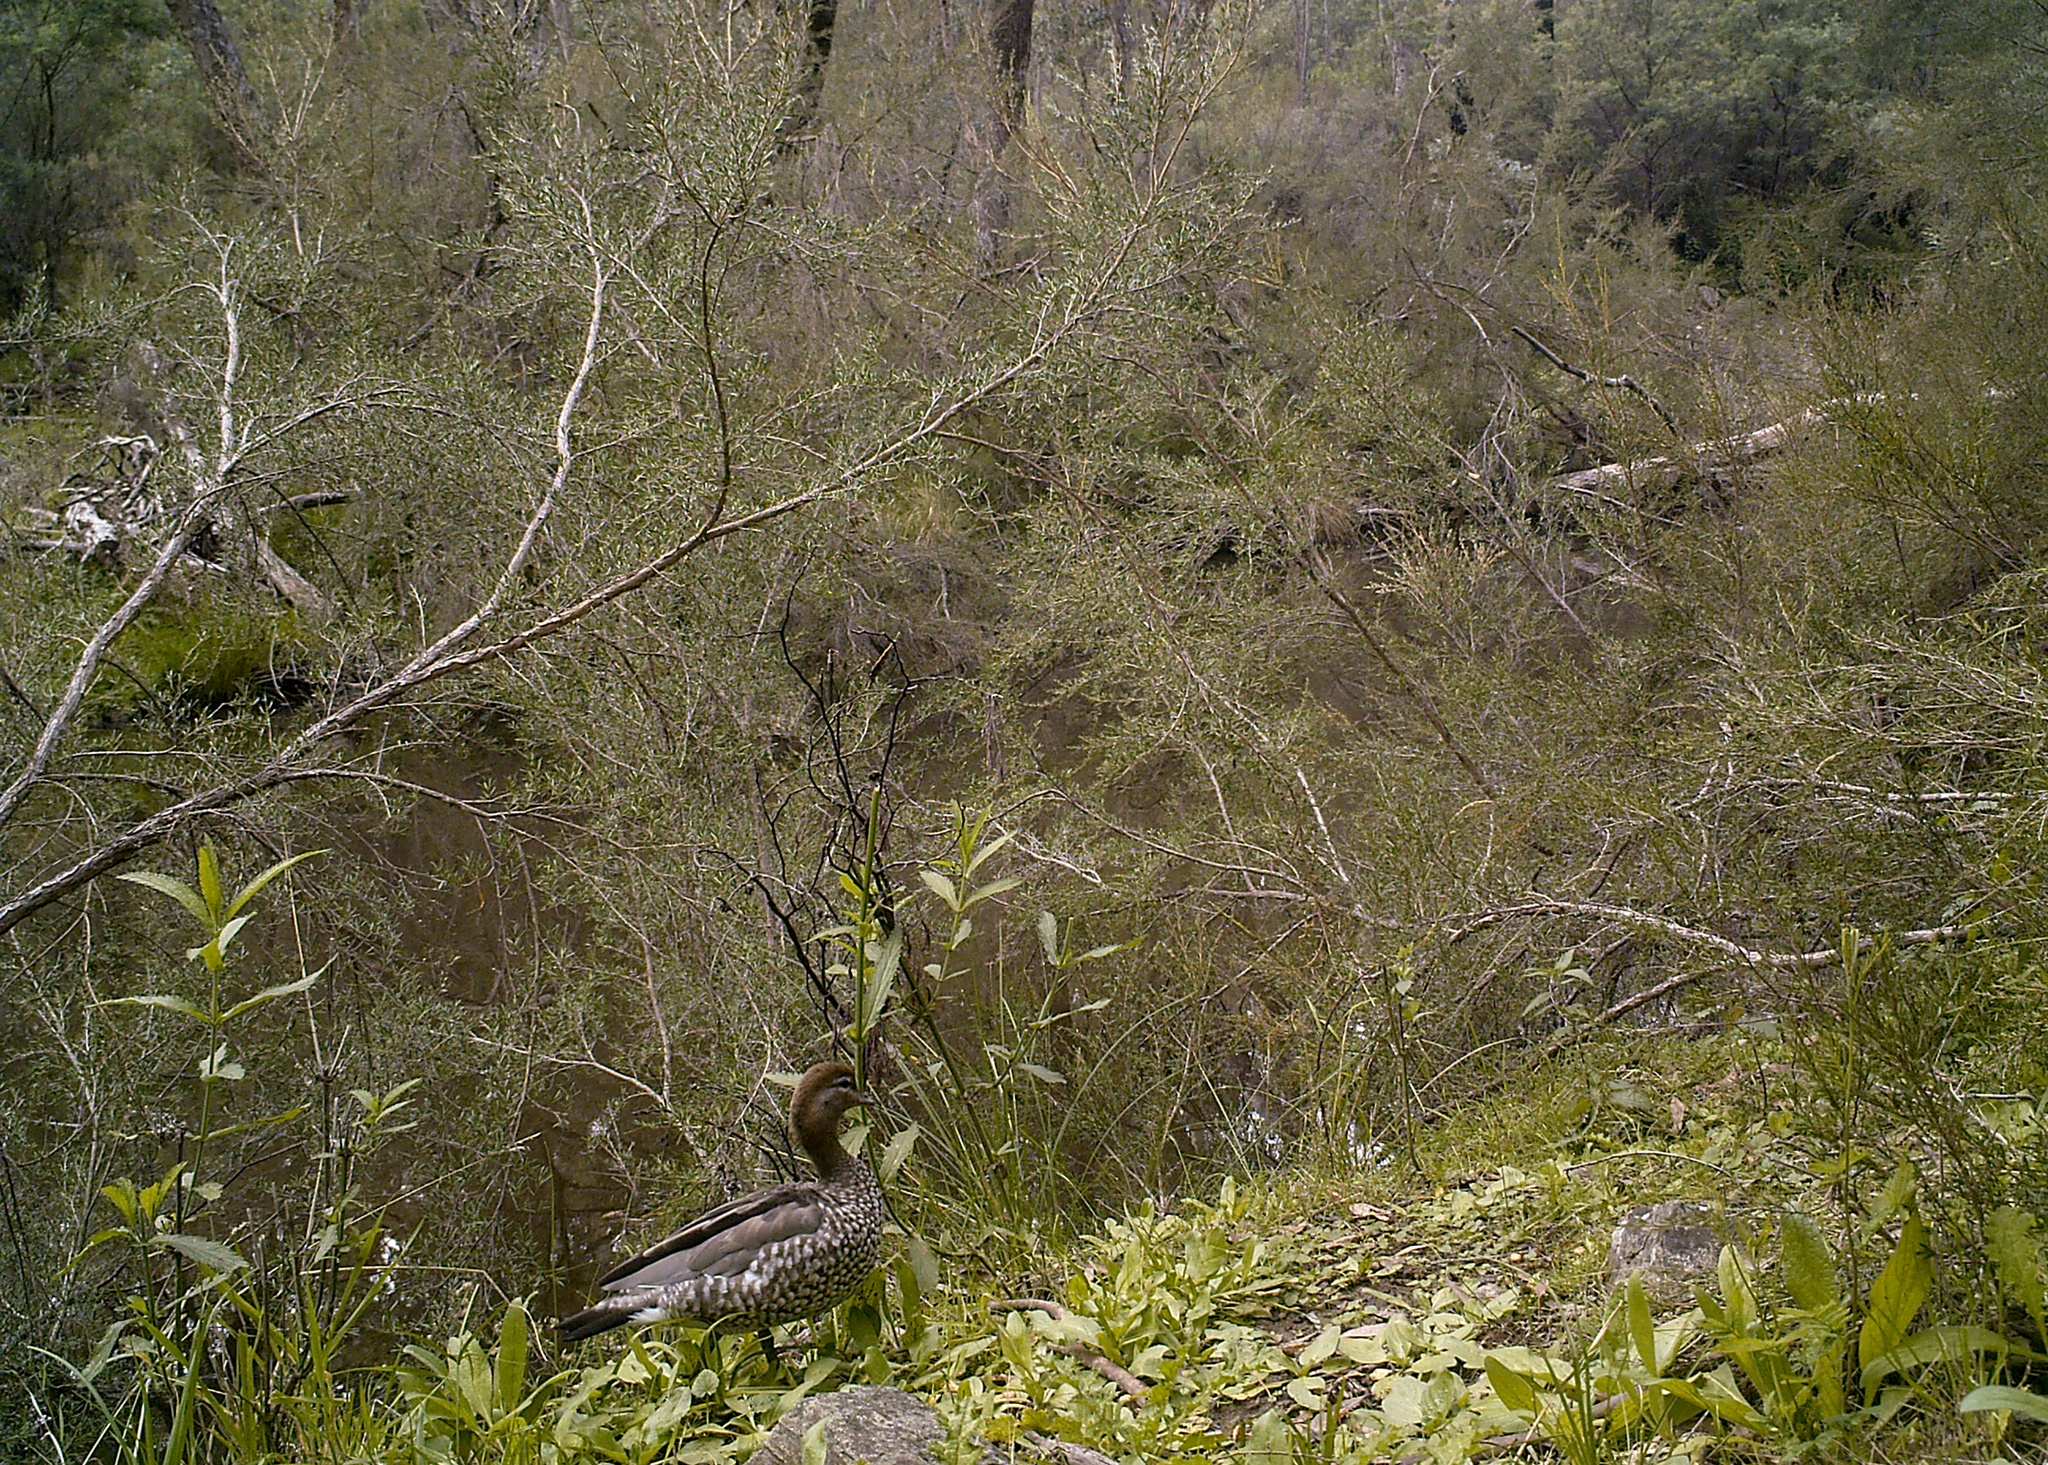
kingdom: Animalia
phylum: Chordata
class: Aves
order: Anseriformes
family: Anatidae
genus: Chenonetta
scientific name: Chenonetta jubata
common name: Maned duck
